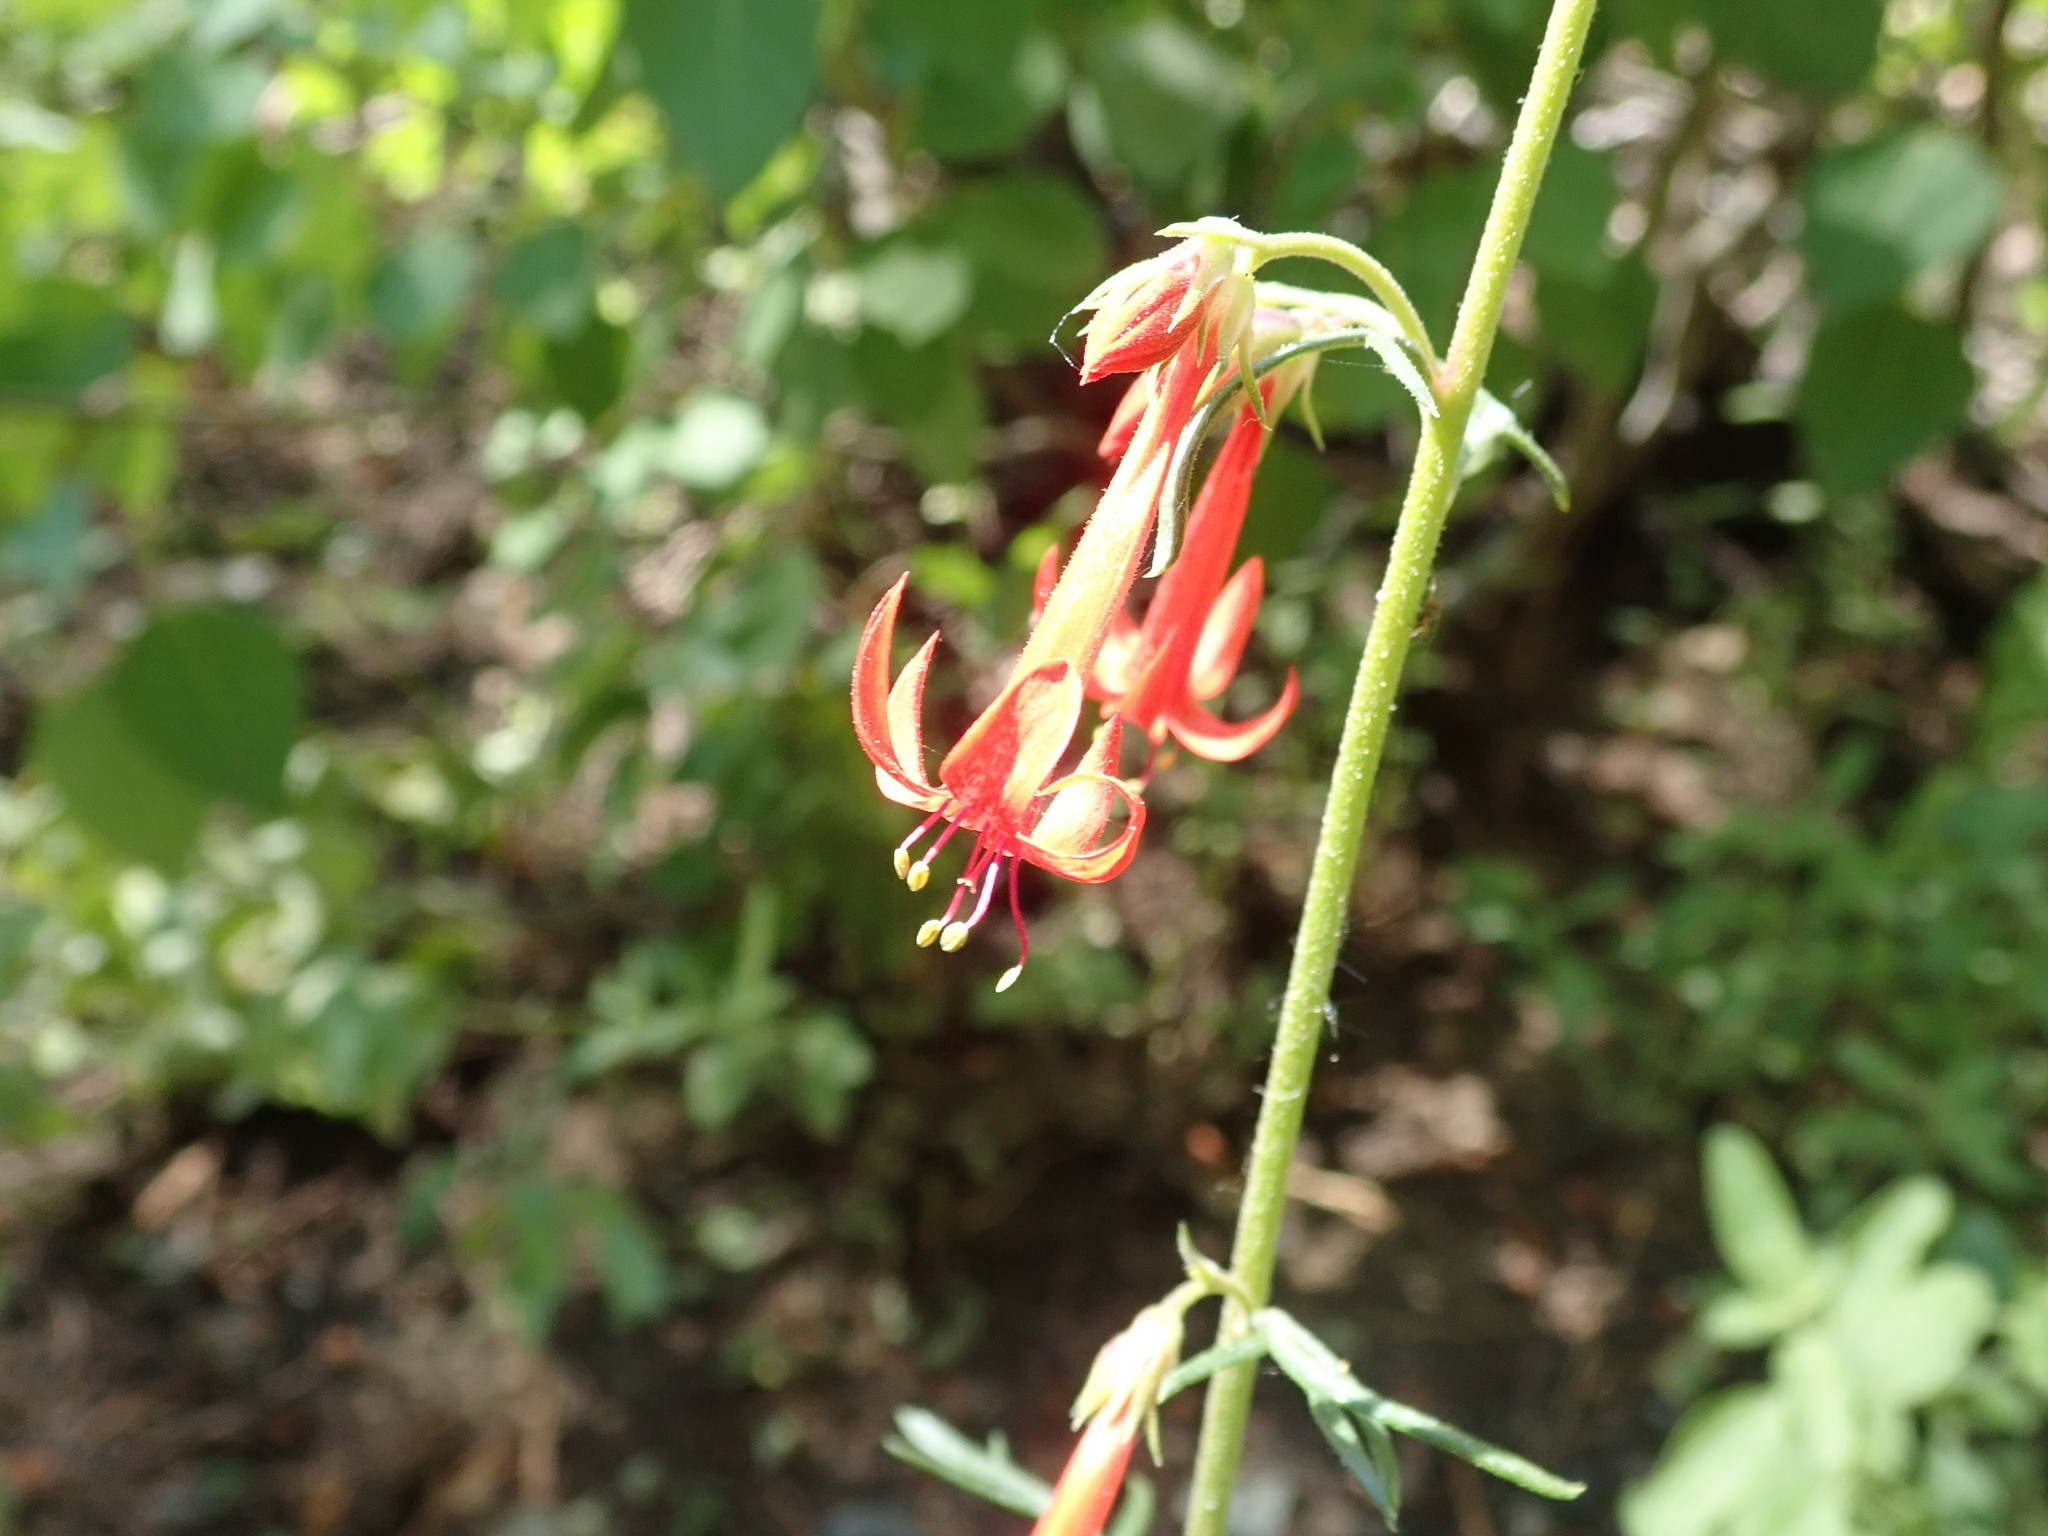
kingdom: Plantae
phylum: Tracheophyta
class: Magnoliopsida
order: Ericales
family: Polemoniaceae
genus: Ipomopsis
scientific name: Ipomopsis aggregata
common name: Scarlet gilia
